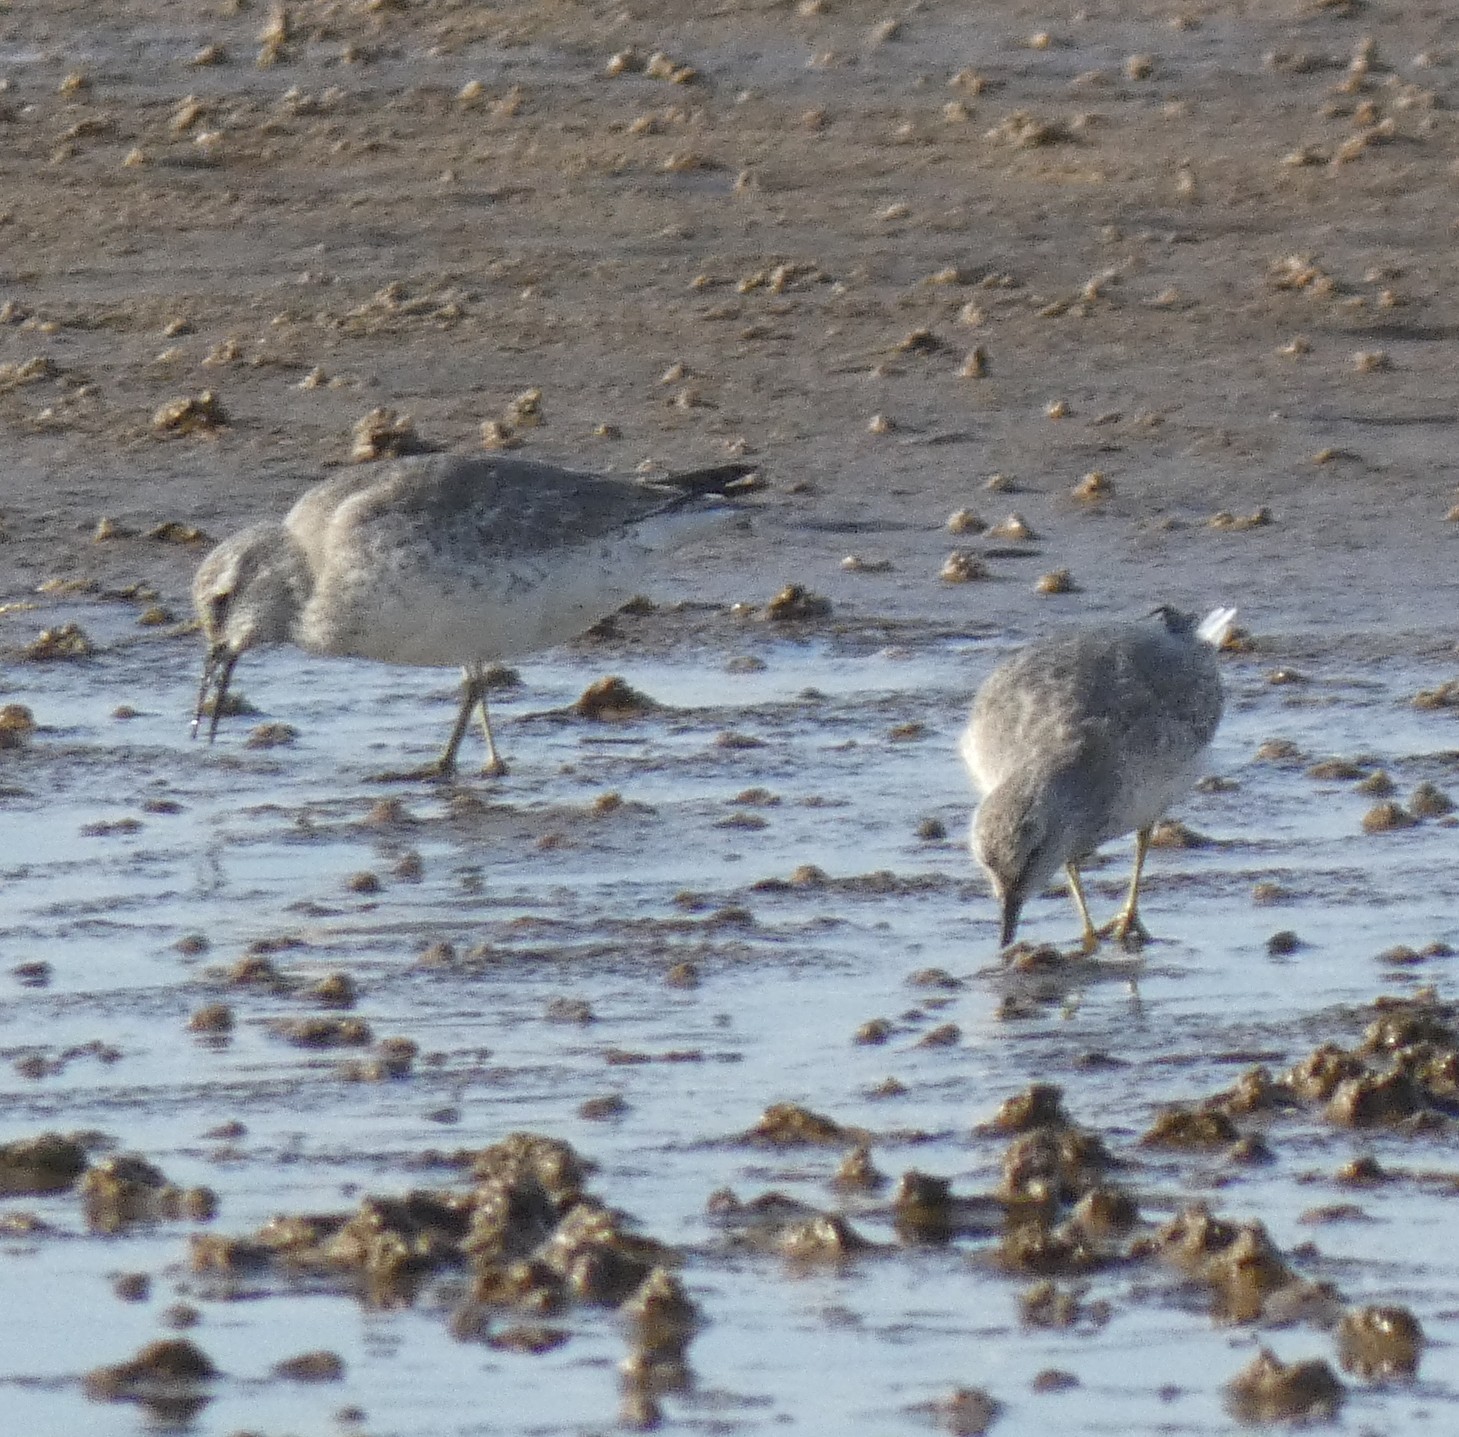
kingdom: Animalia
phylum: Chordata
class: Aves
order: Charadriiformes
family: Scolopacidae
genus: Calidris
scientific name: Calidris canutus
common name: Red knot
